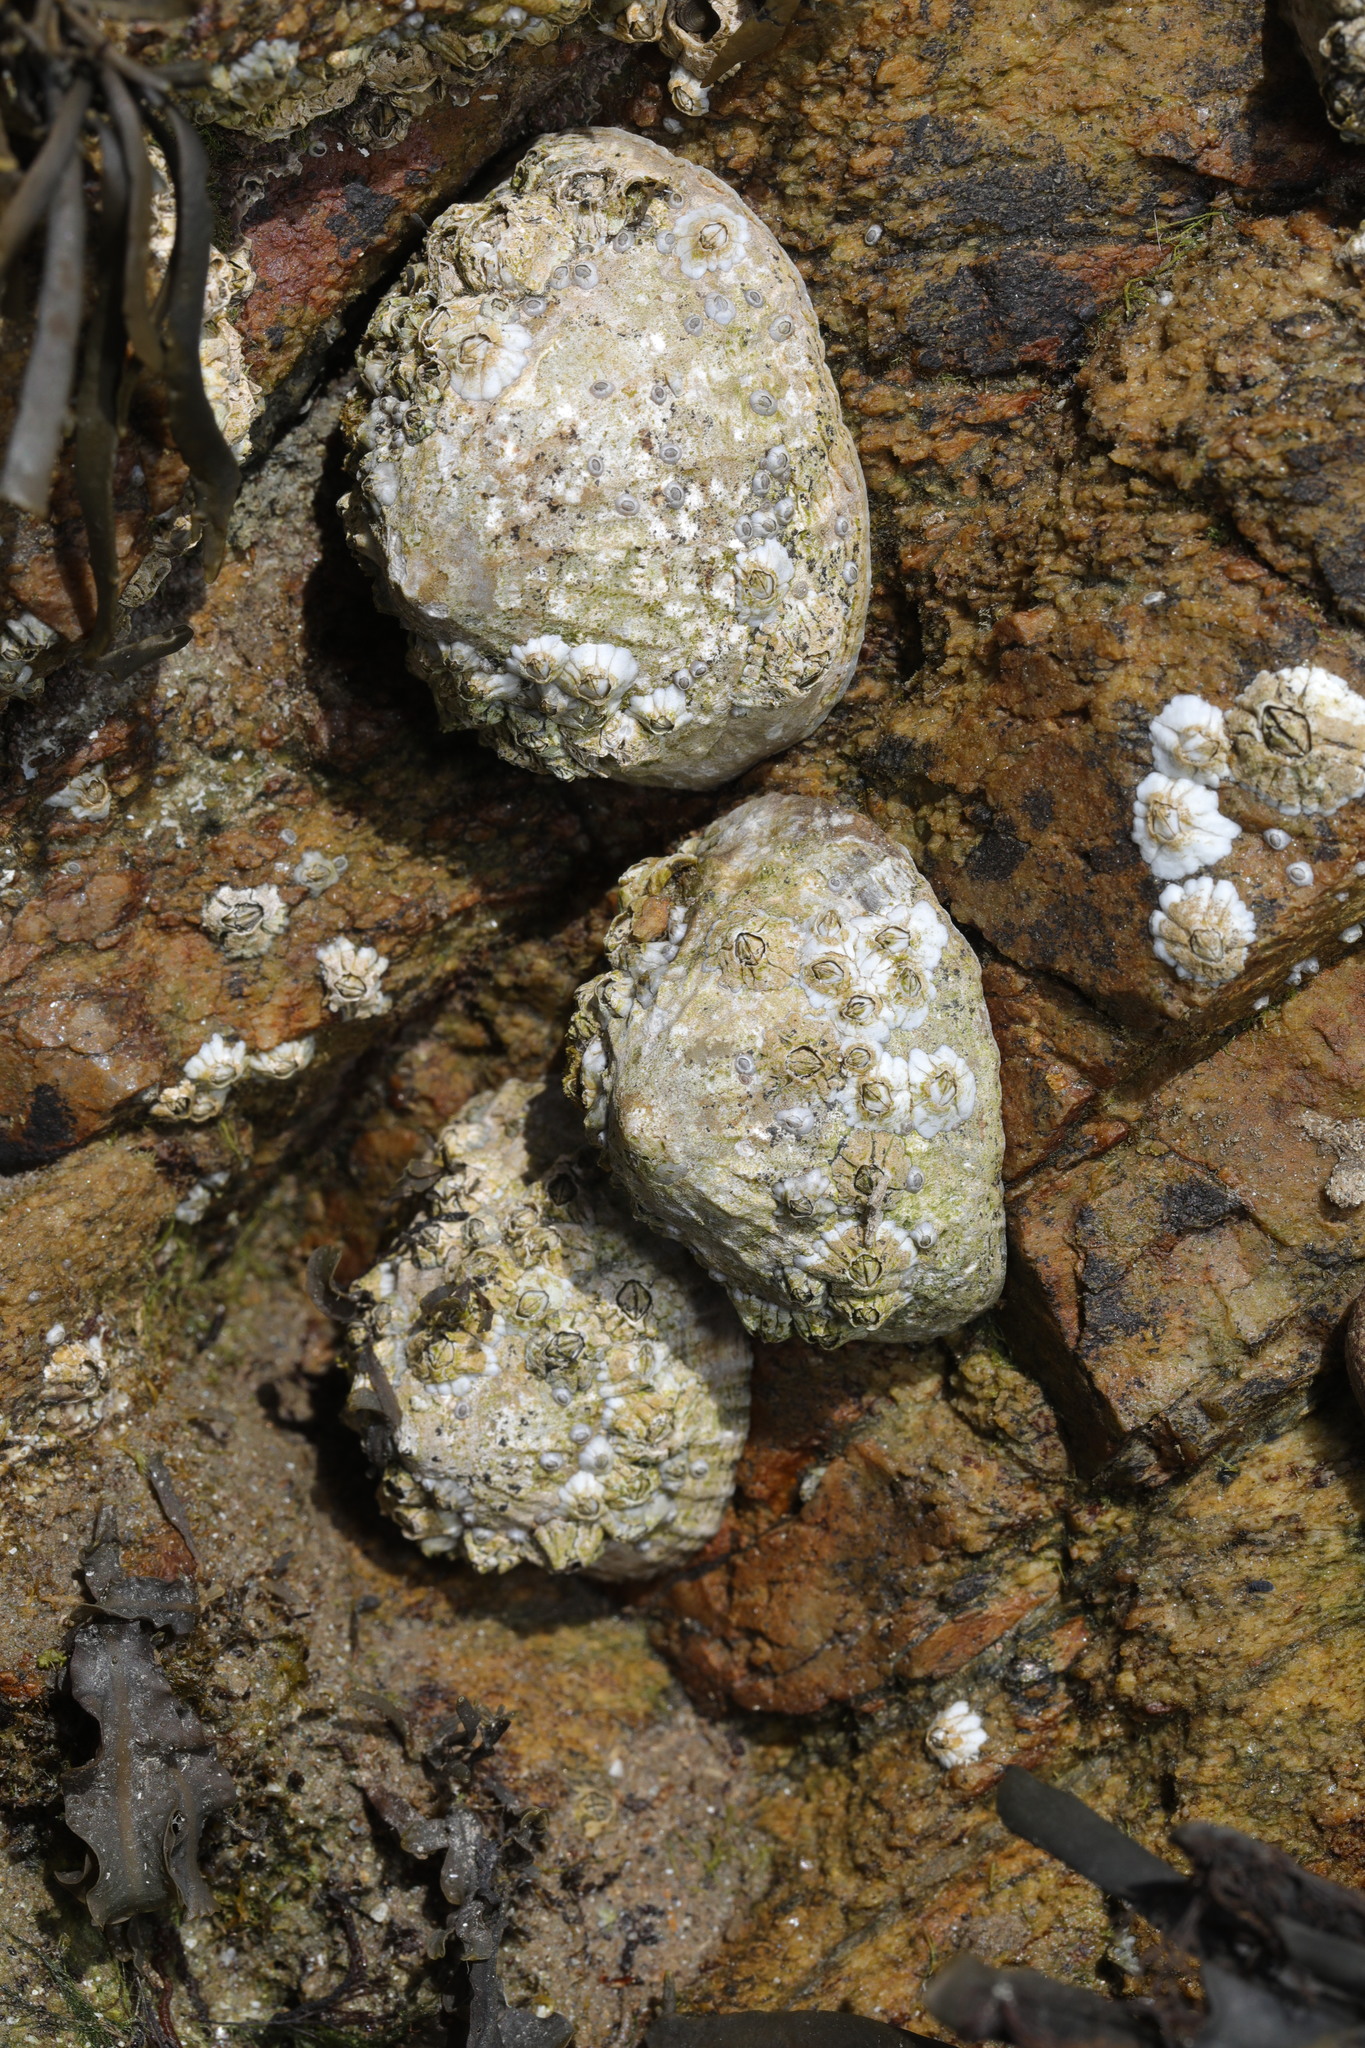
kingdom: Animalia
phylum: Mollusca
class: Gastropoda
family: Patellidae
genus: Patella
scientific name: Patella vulgata
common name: Common limpet
